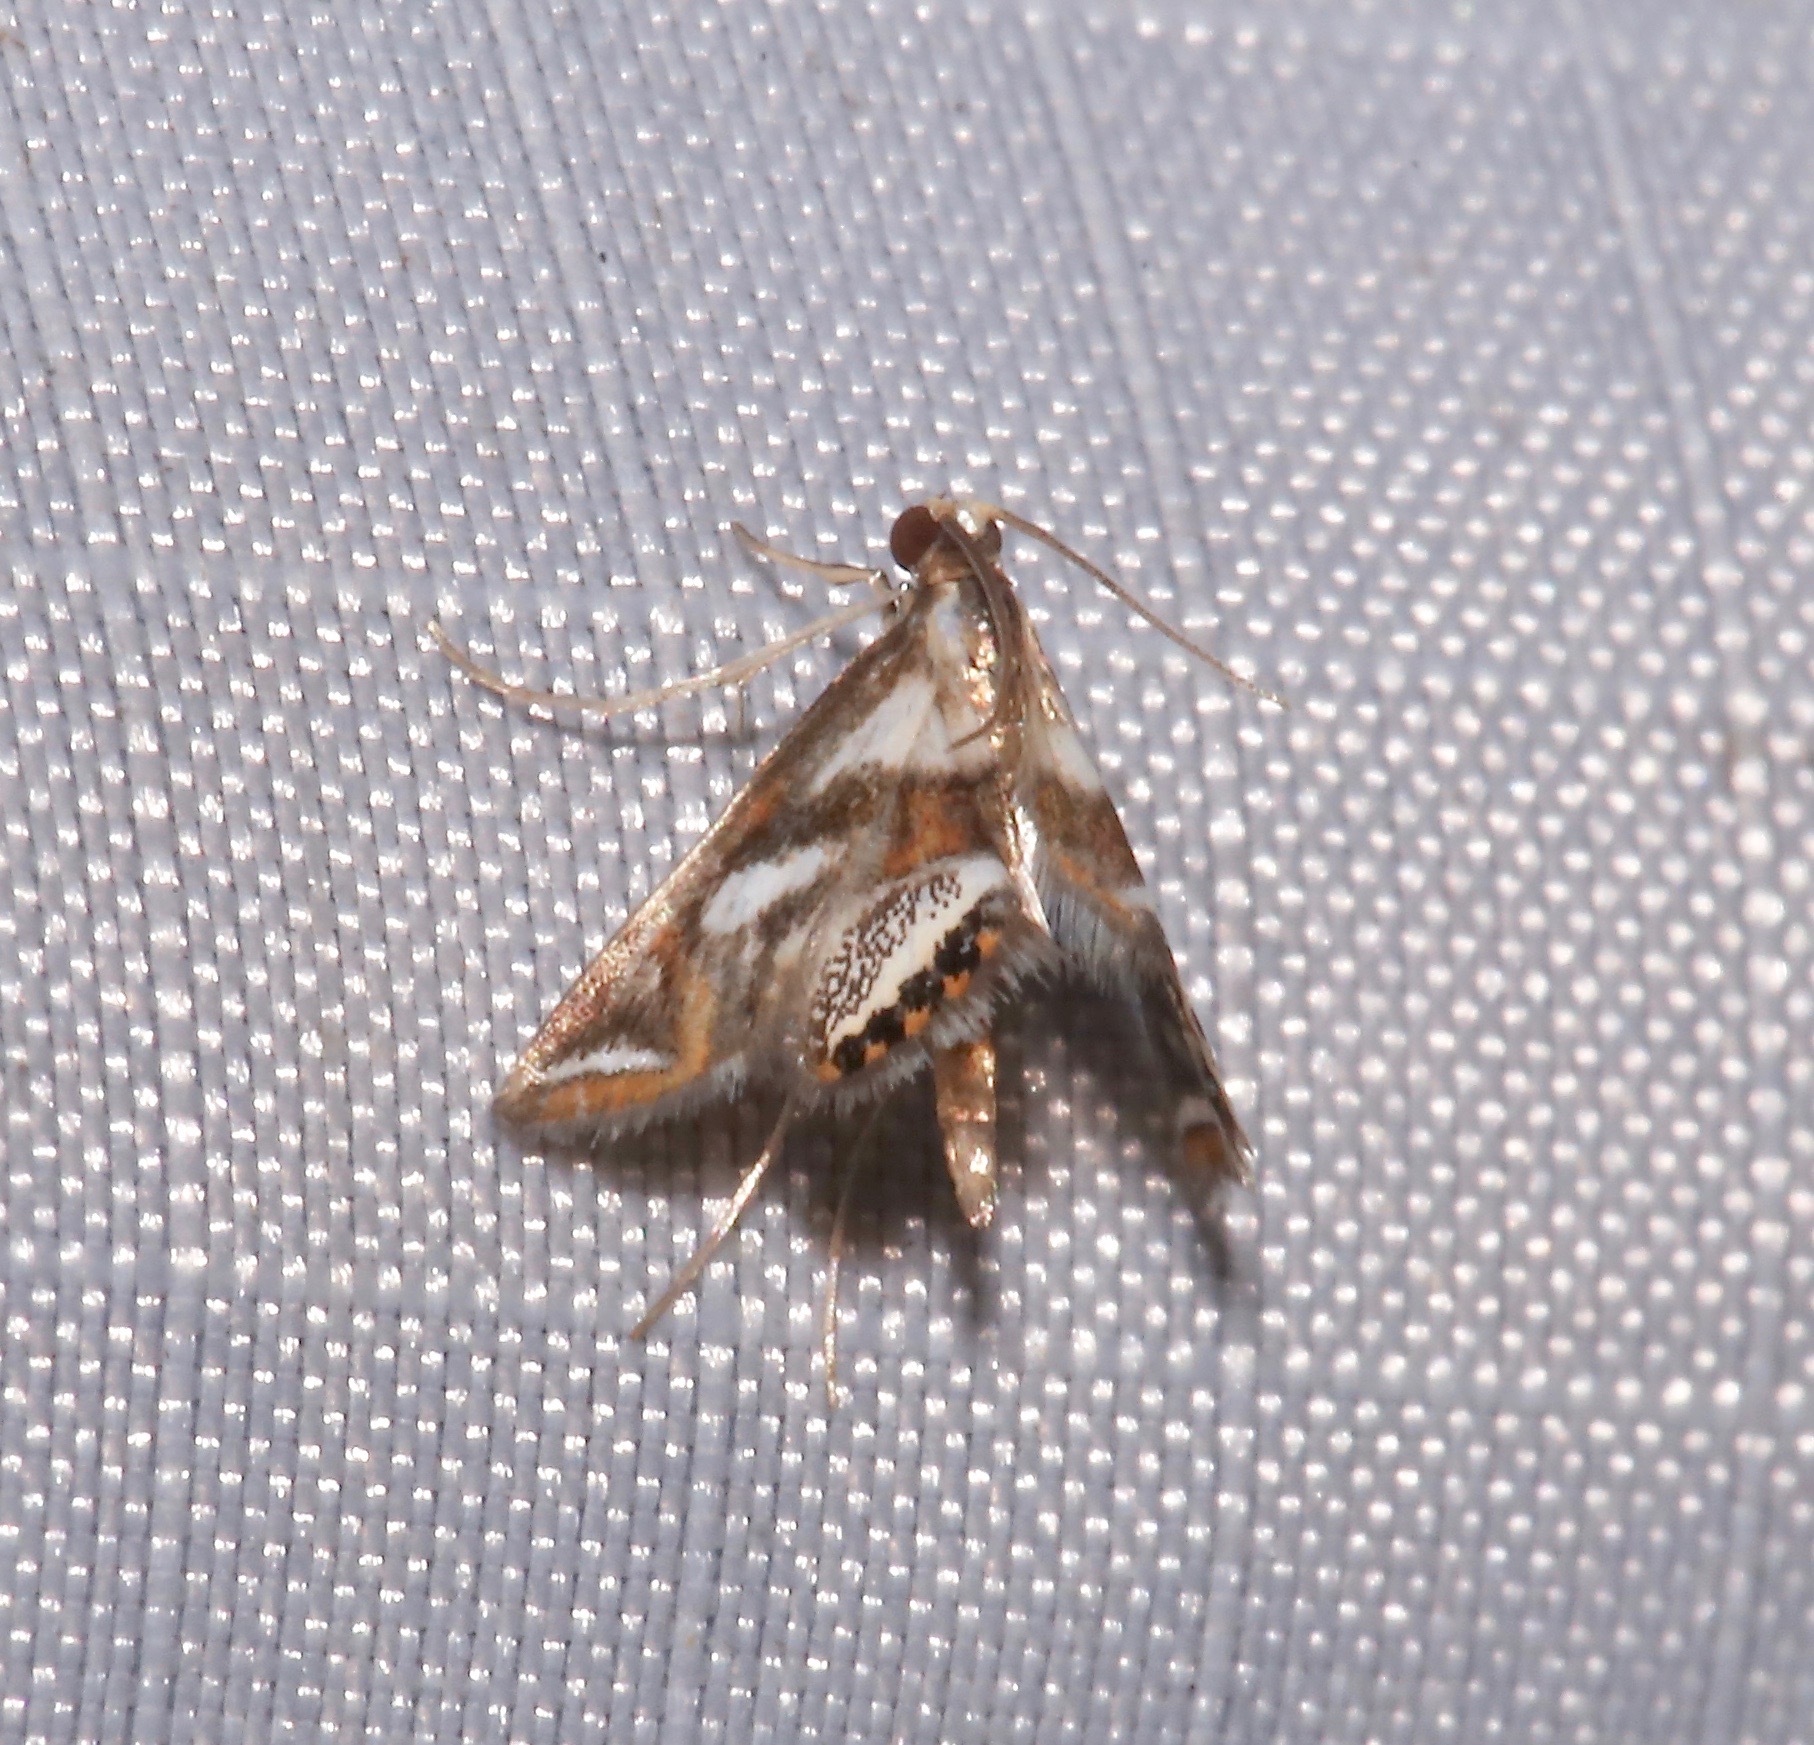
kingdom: Animalia
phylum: Arthropoda
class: Insecta
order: Lepidoptera
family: Crambidae
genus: Chrysendeton
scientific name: Chrysendeton imitabilis
